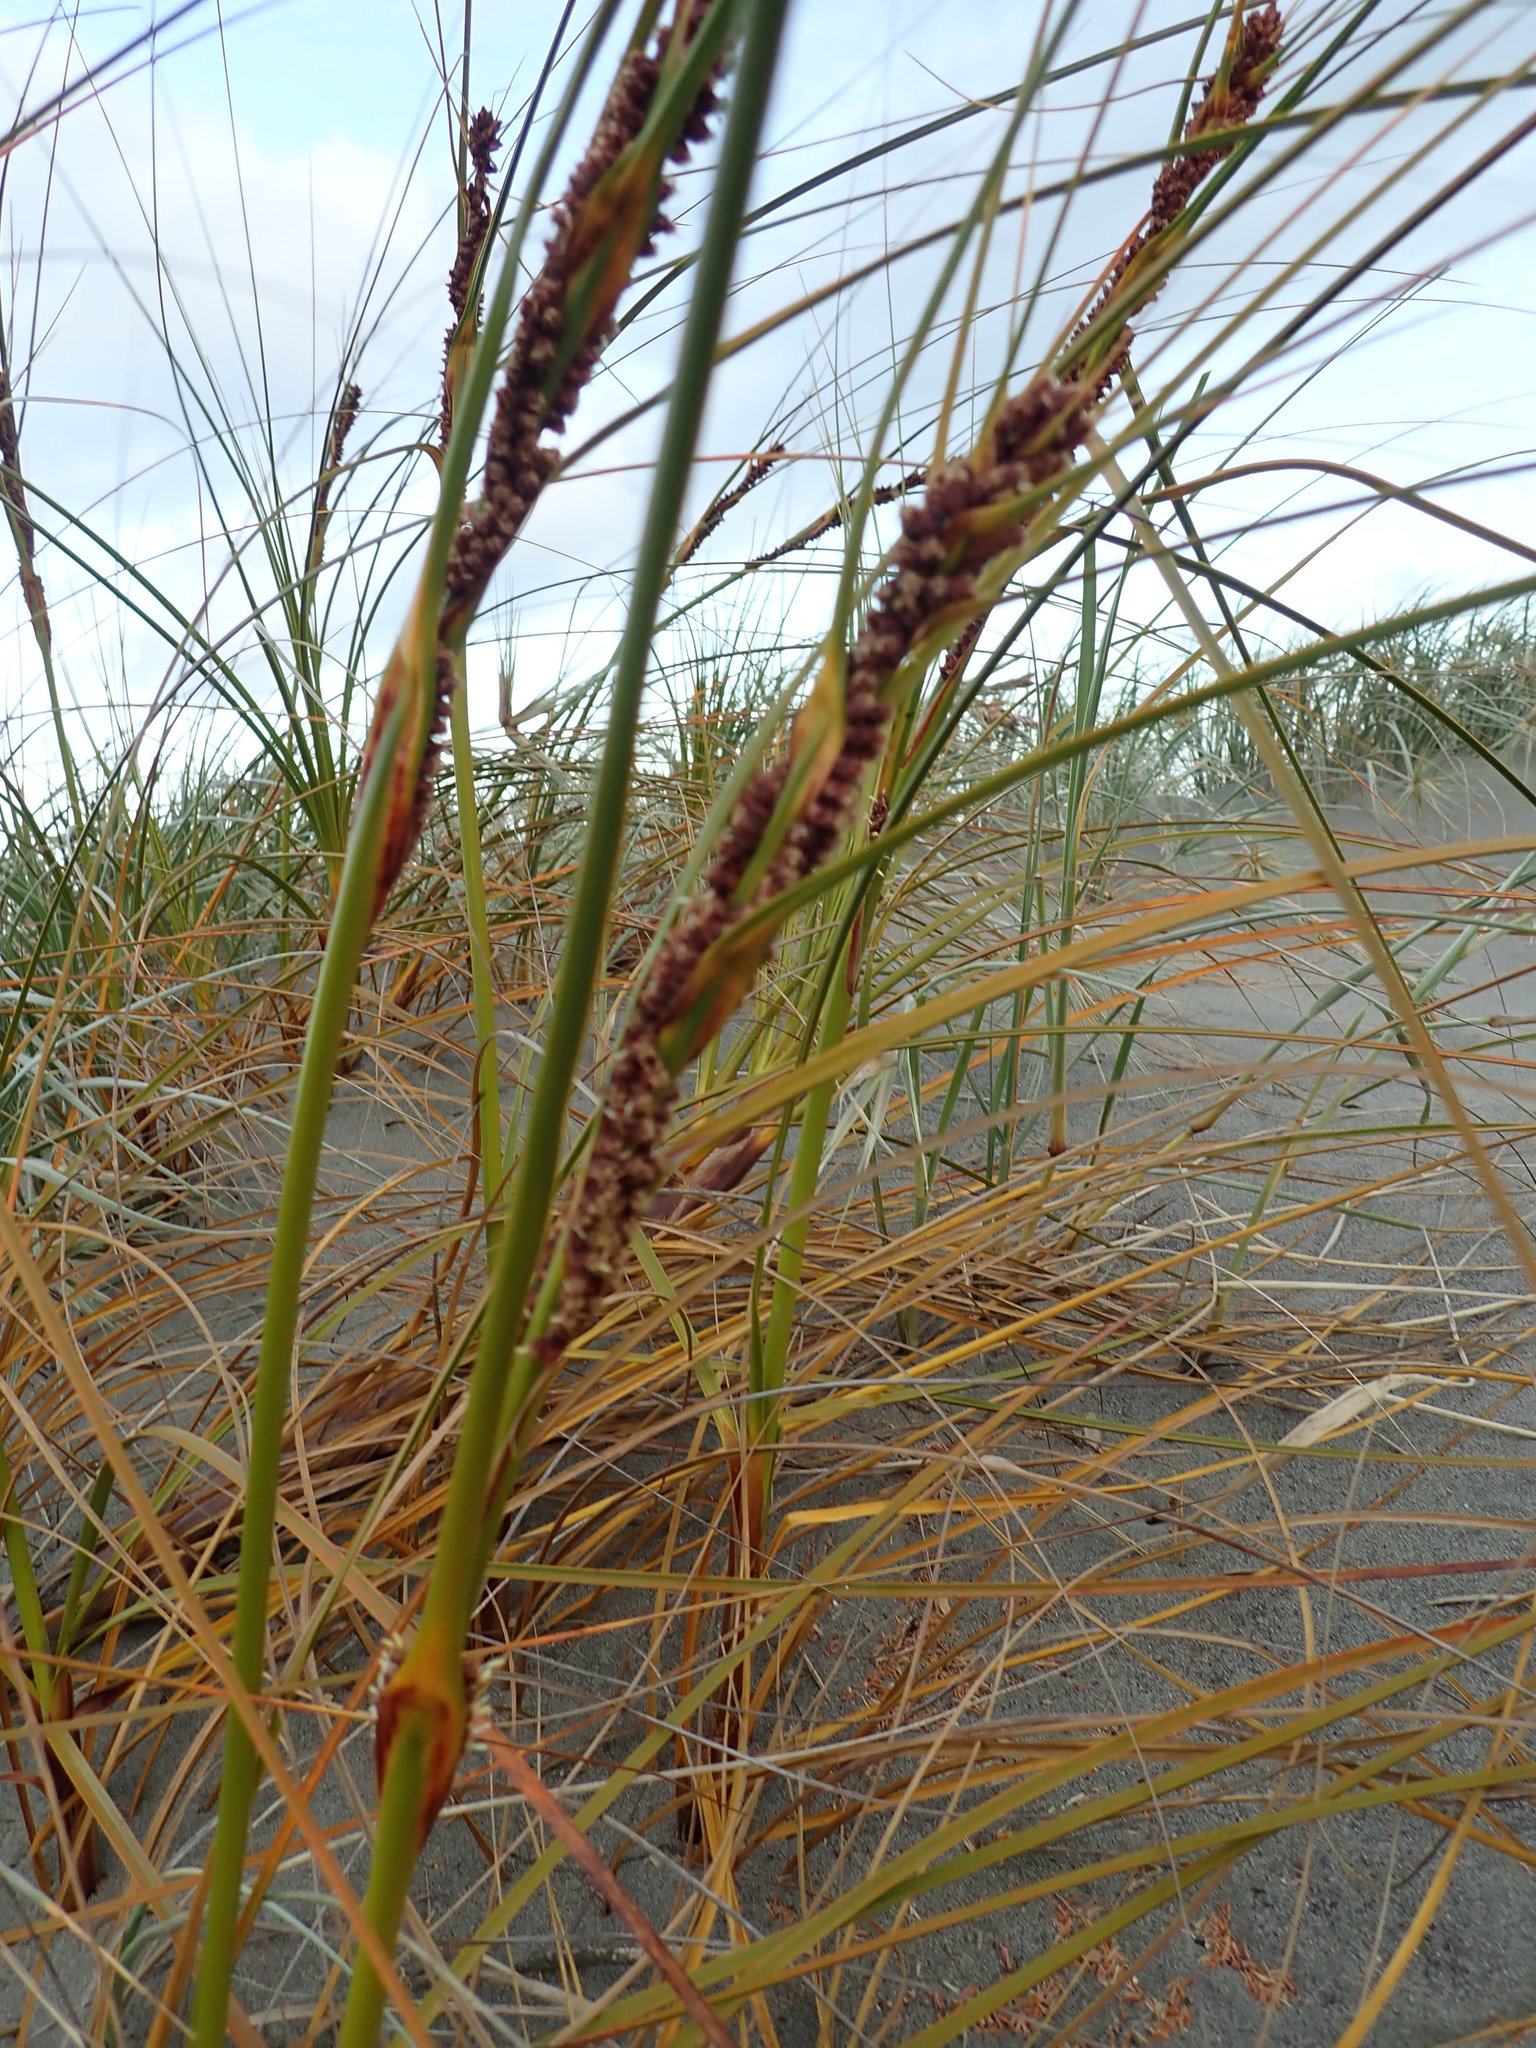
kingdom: Plantae
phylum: Tracheophyta
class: Liliopsida
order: Poales
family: Cyperaceae
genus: Ficinia
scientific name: Ficinia spiralis
